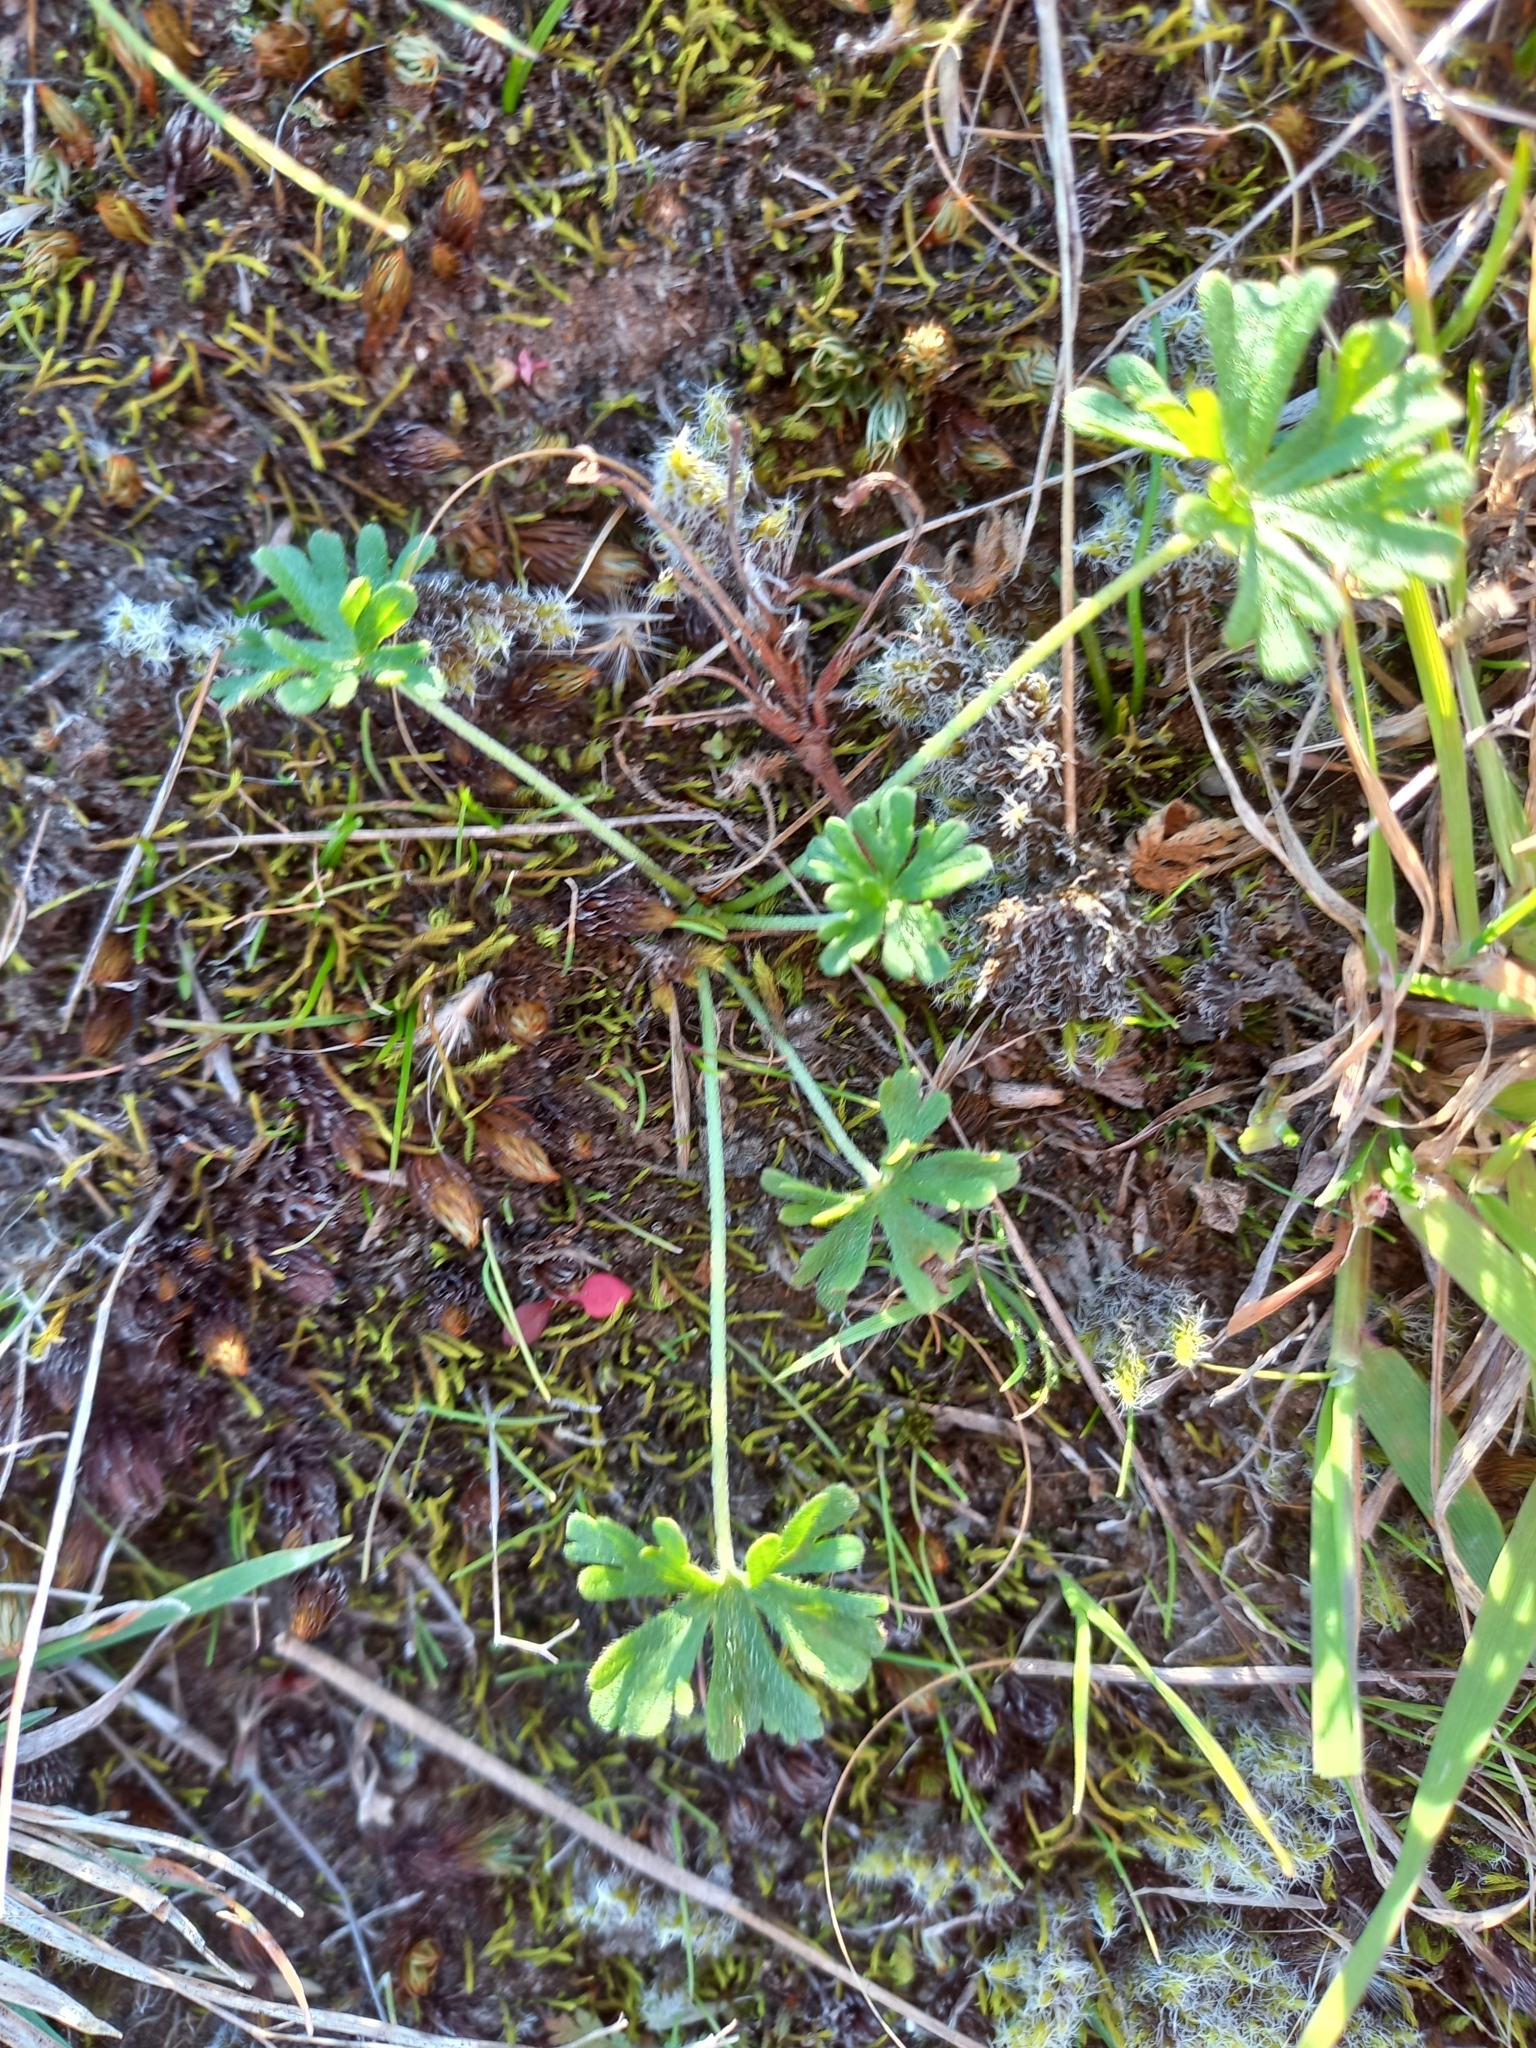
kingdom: Plantae
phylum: Tracheophyta
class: Magnoliopsida
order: Geraniales
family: Geraniaceae
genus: Geranium
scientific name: Geranium retrorsum
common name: New zealand geranium
